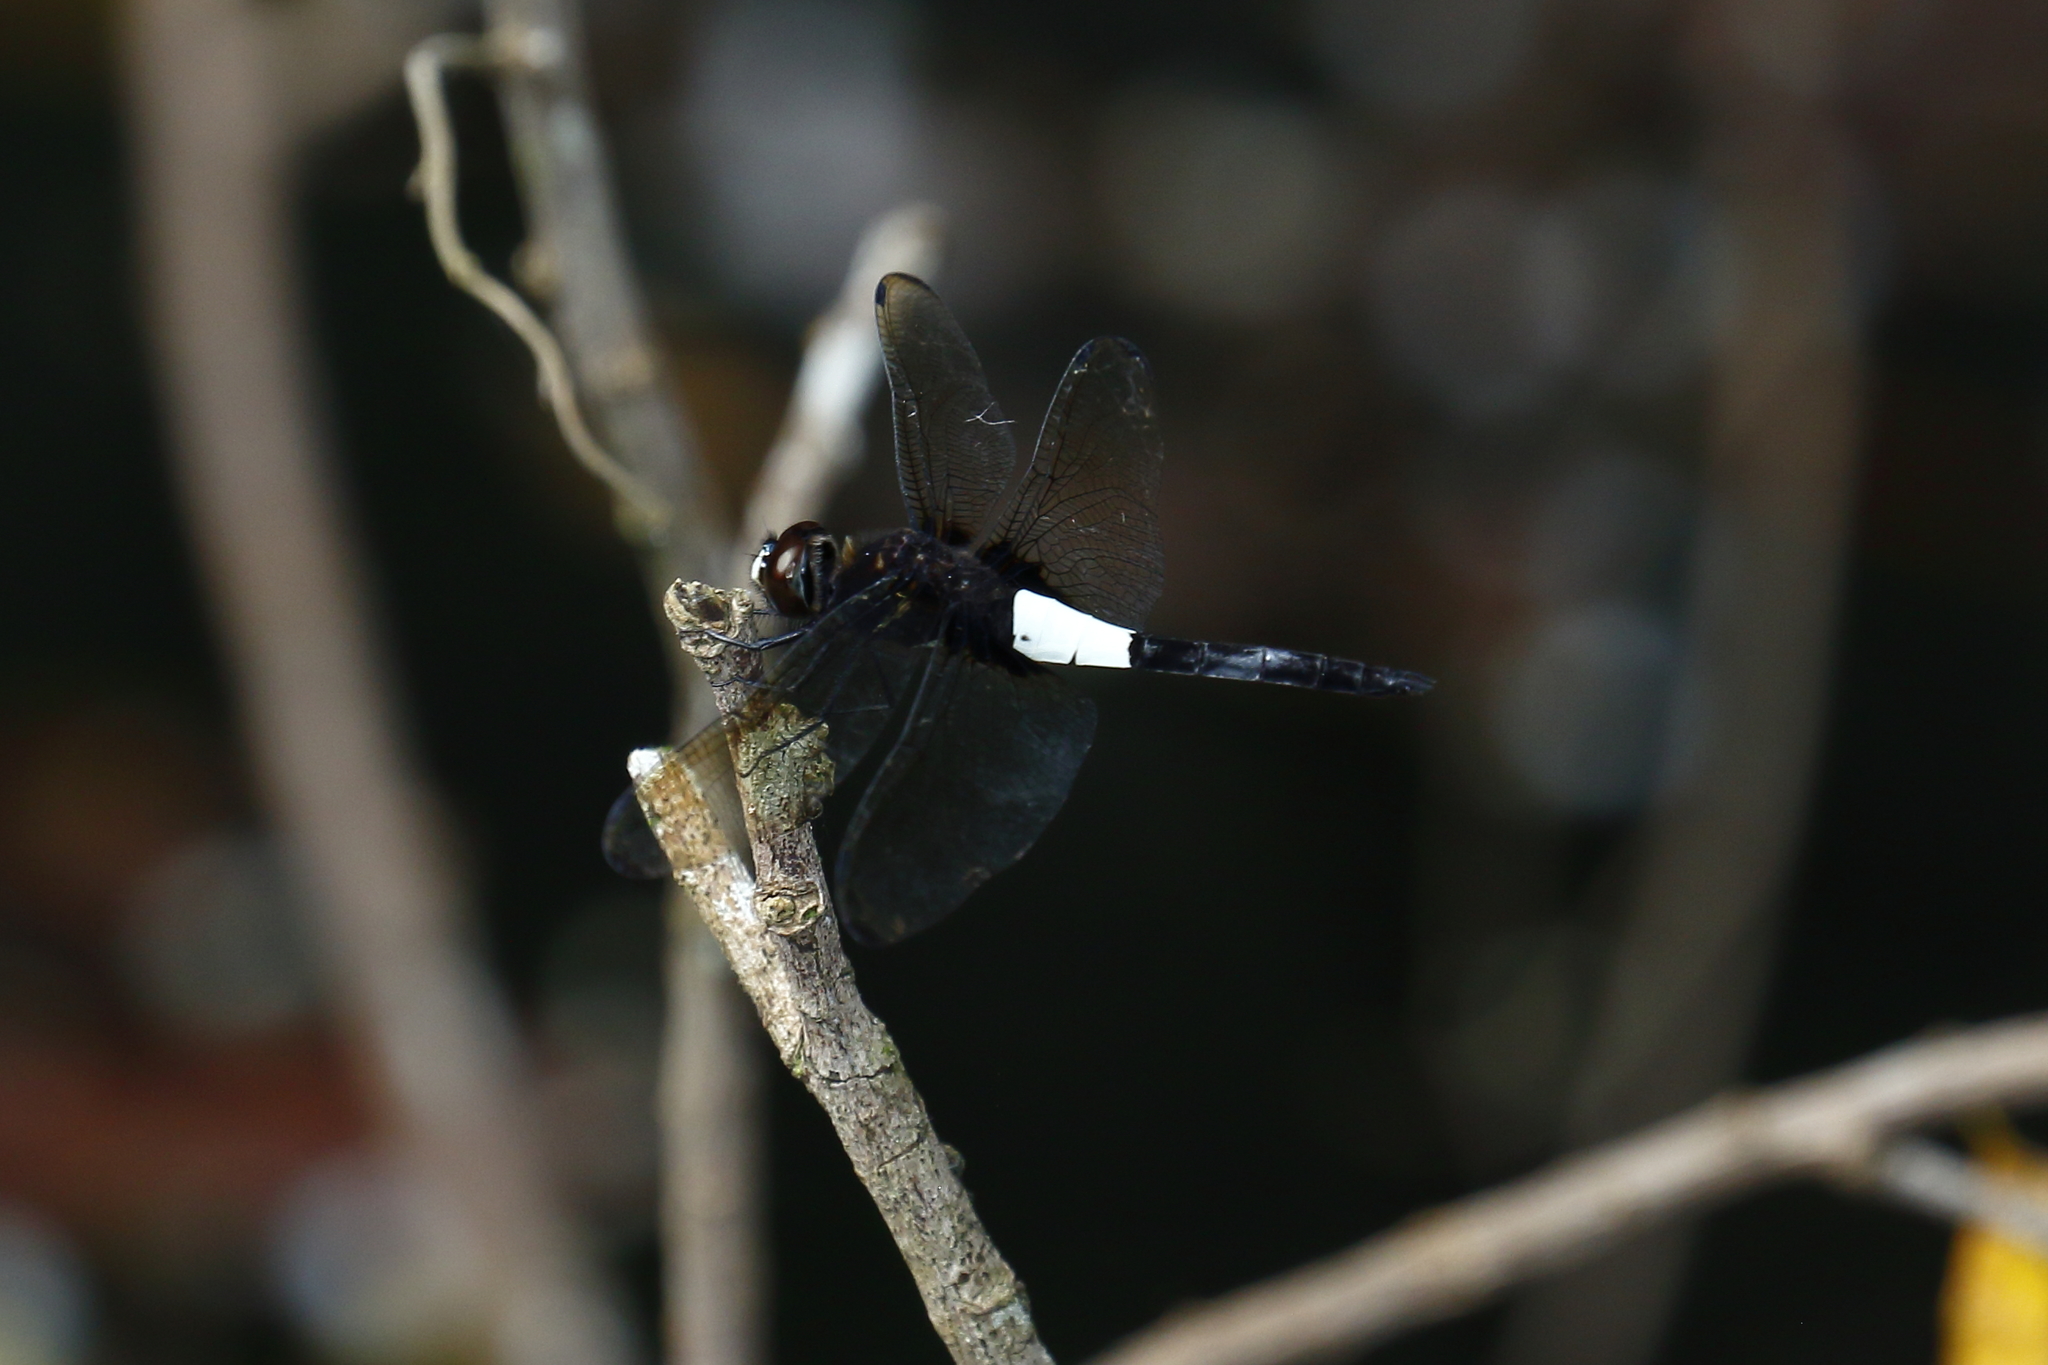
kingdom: Animalia
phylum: Arthropoda
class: Insecta
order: Odonata
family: Libellulidae
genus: Pseudothemis
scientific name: Pseudothemis zonata
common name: Pied skimmer
